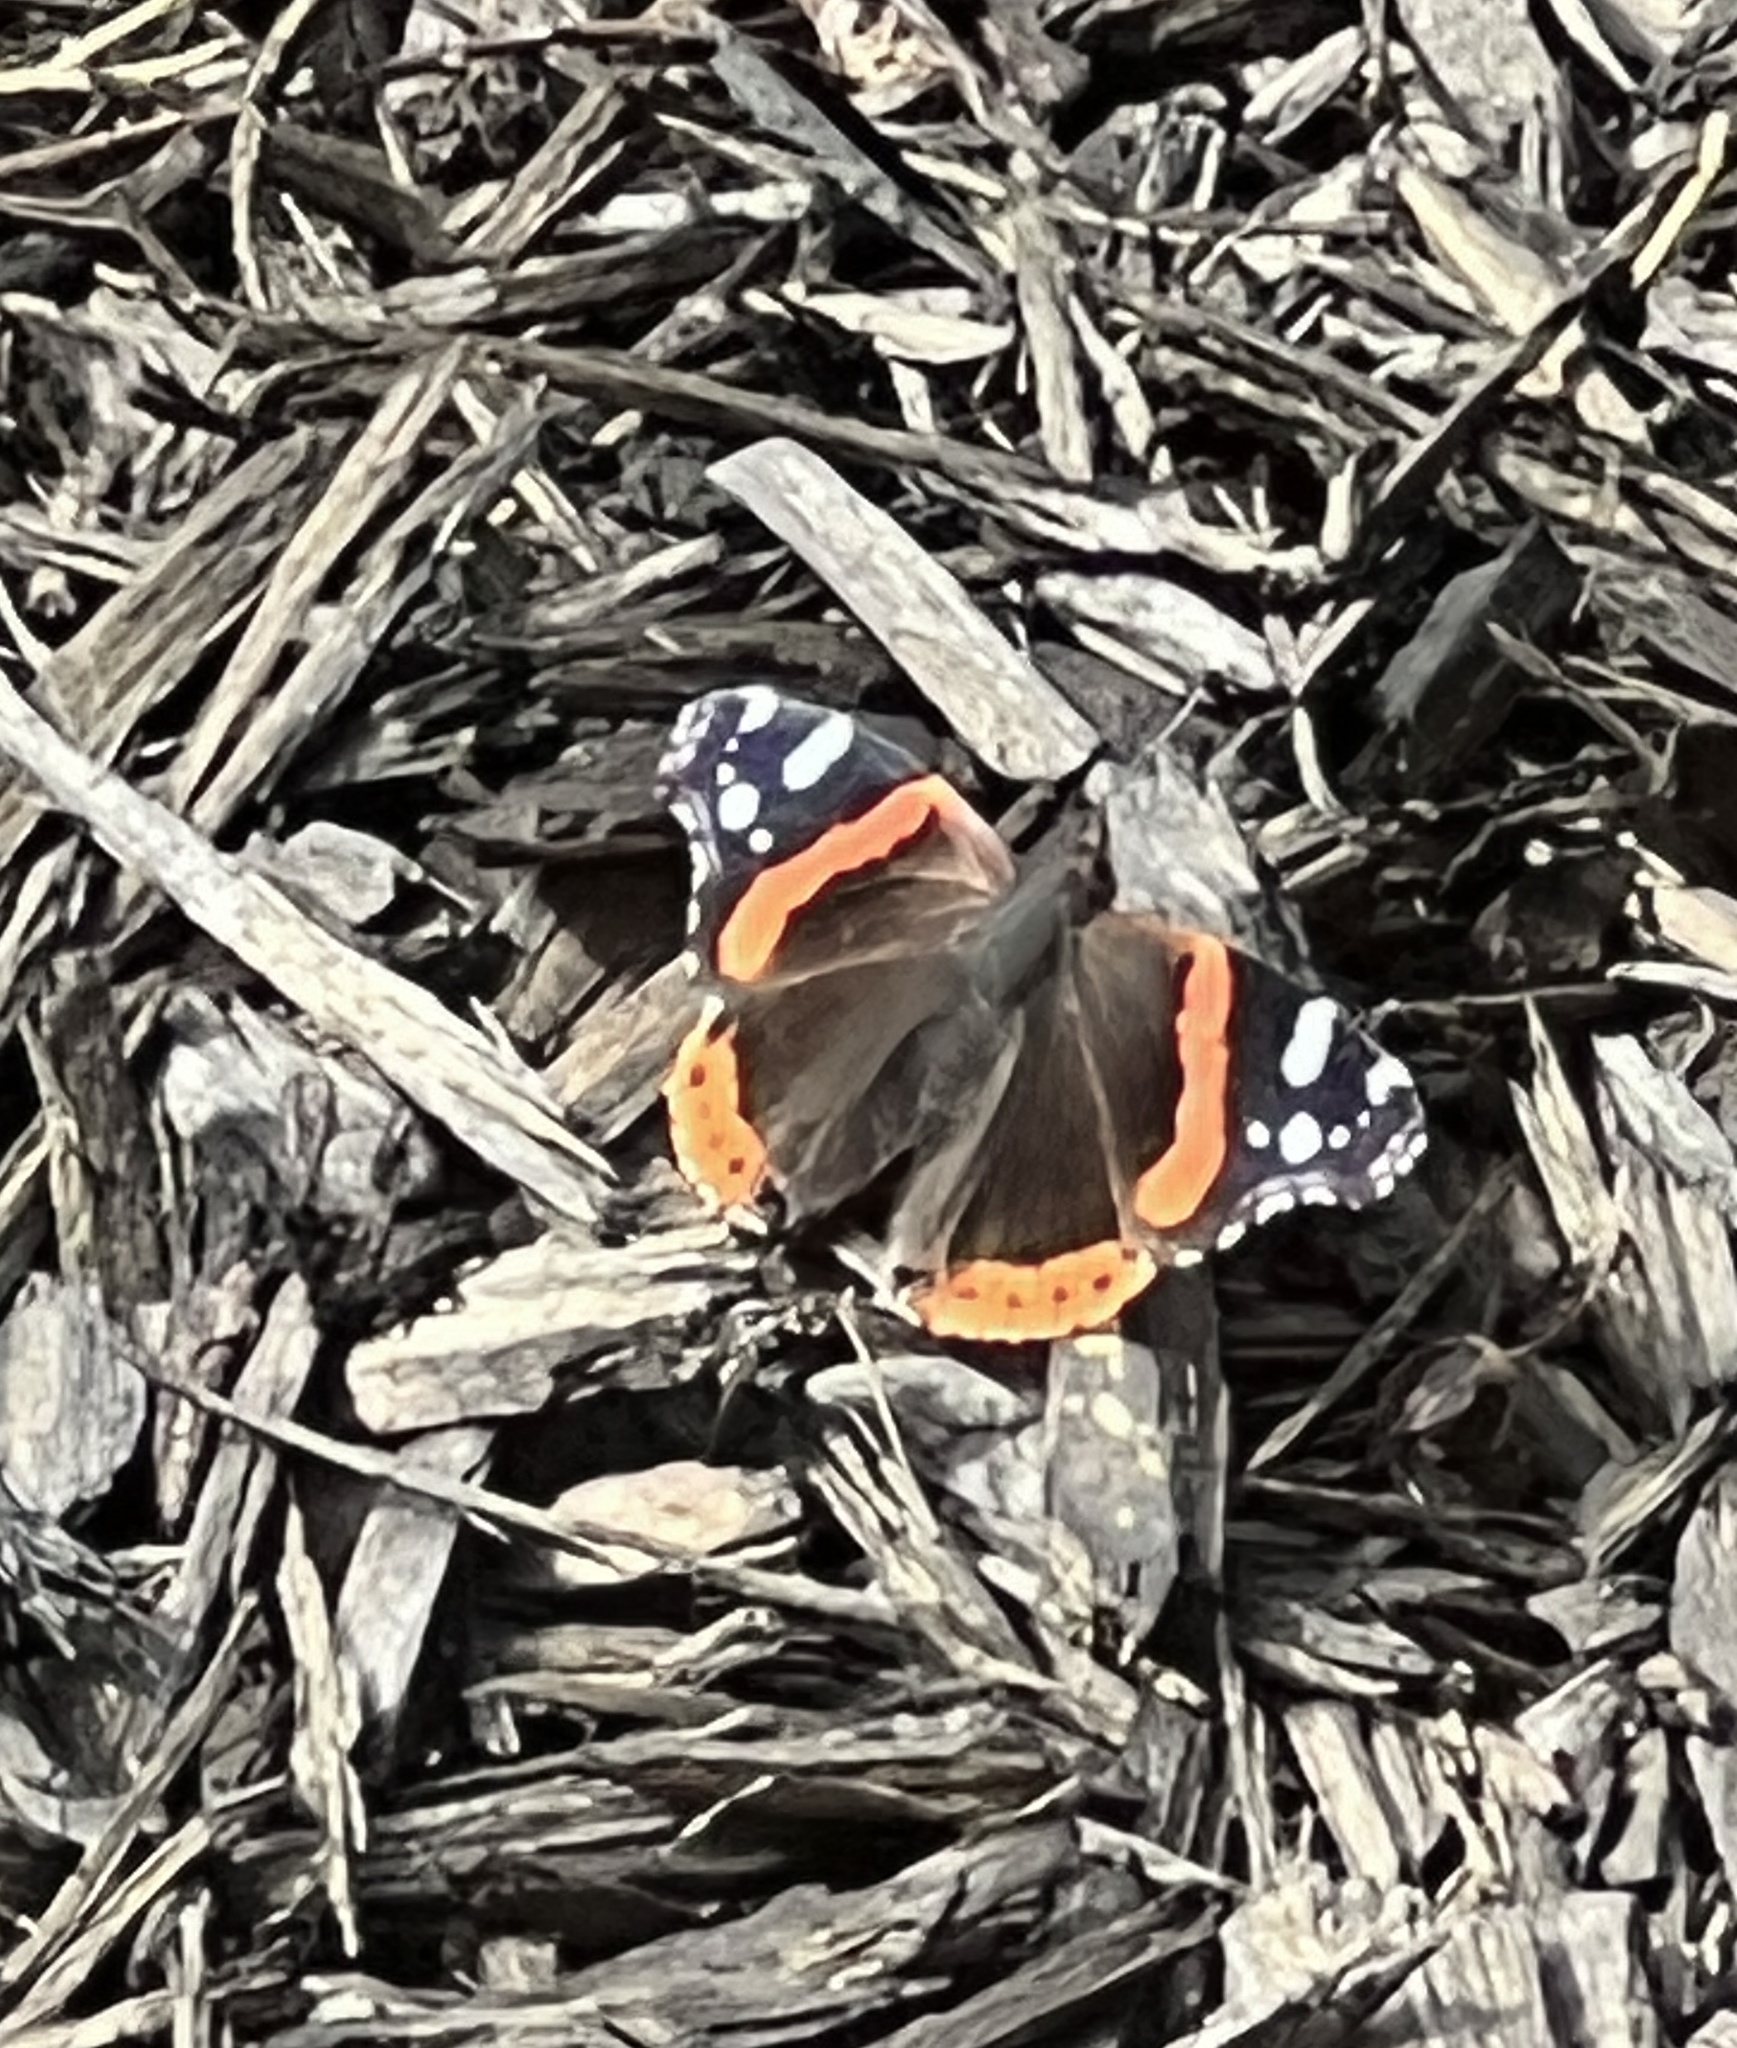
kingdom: Animalia
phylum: Arthropoda
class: Insecta
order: Lepidoptera
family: Nymphalidae
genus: Vanessa
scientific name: Vanessa atalanta
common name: Red admiral
